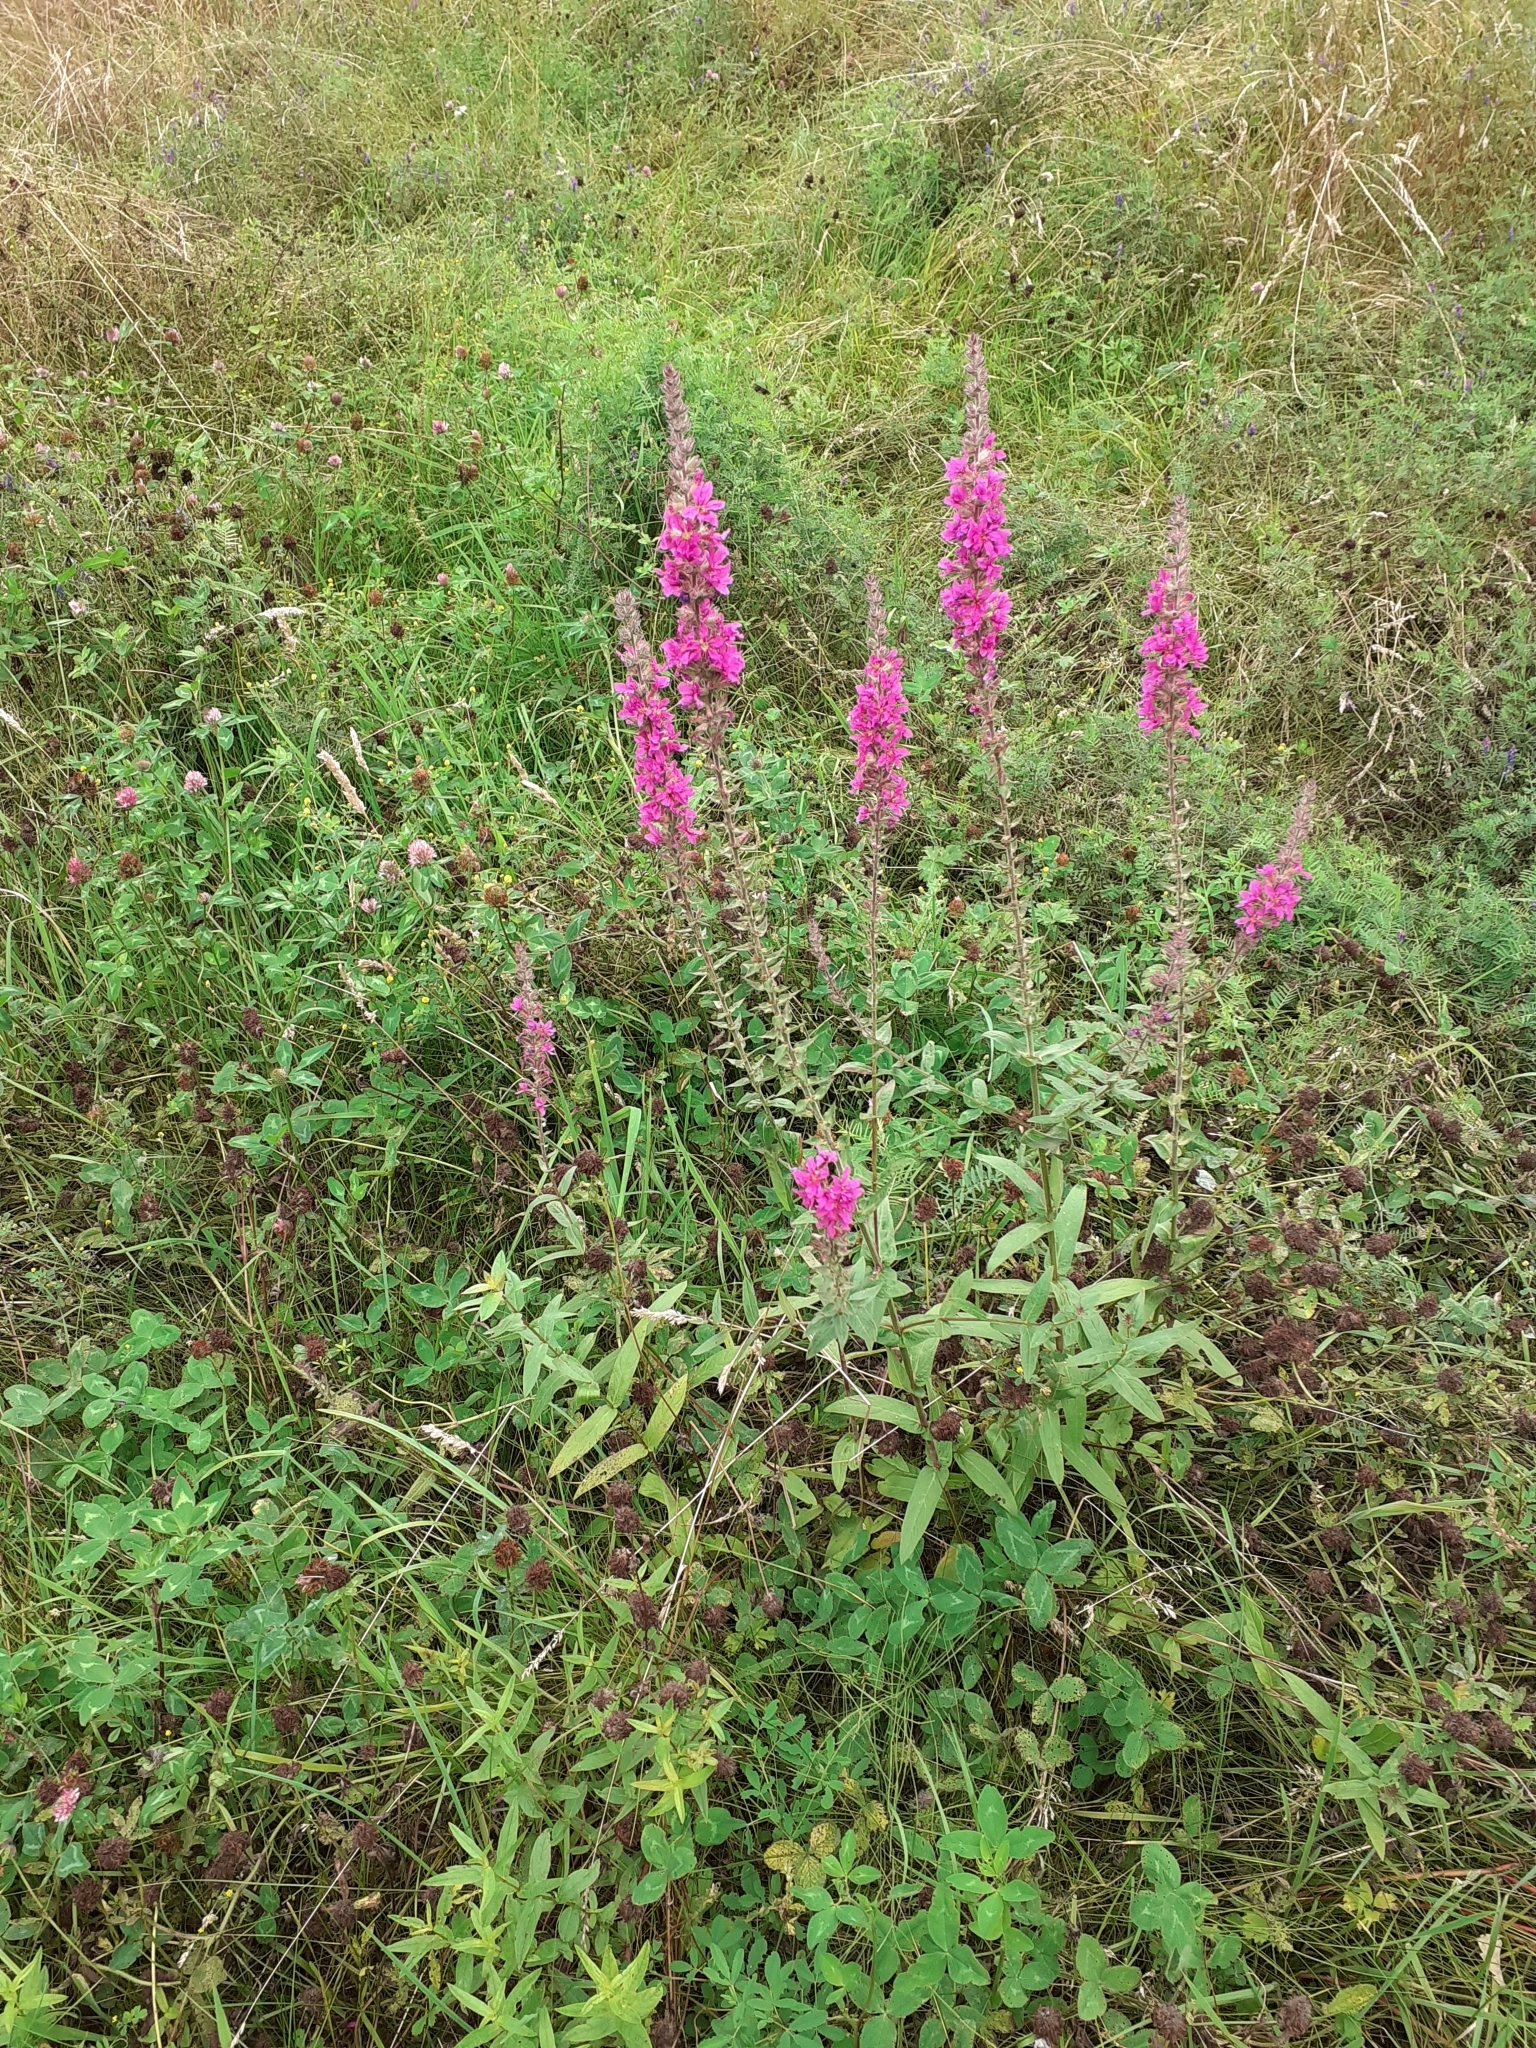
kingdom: Plantae
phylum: Tracheophyta
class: Magnoliopsida
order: Myrtales
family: Lythraceae
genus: Lythrum
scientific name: Lythrum salicaria
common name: Purple loosestrife
